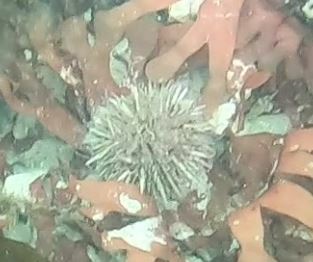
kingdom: Animalia
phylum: Echinodermata
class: Echinoidea
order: Camarodonta
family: Strongylocentrotidae
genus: Strongylocentrotus
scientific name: Strongylocentrotus purpuratus
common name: Purple sea urchin
